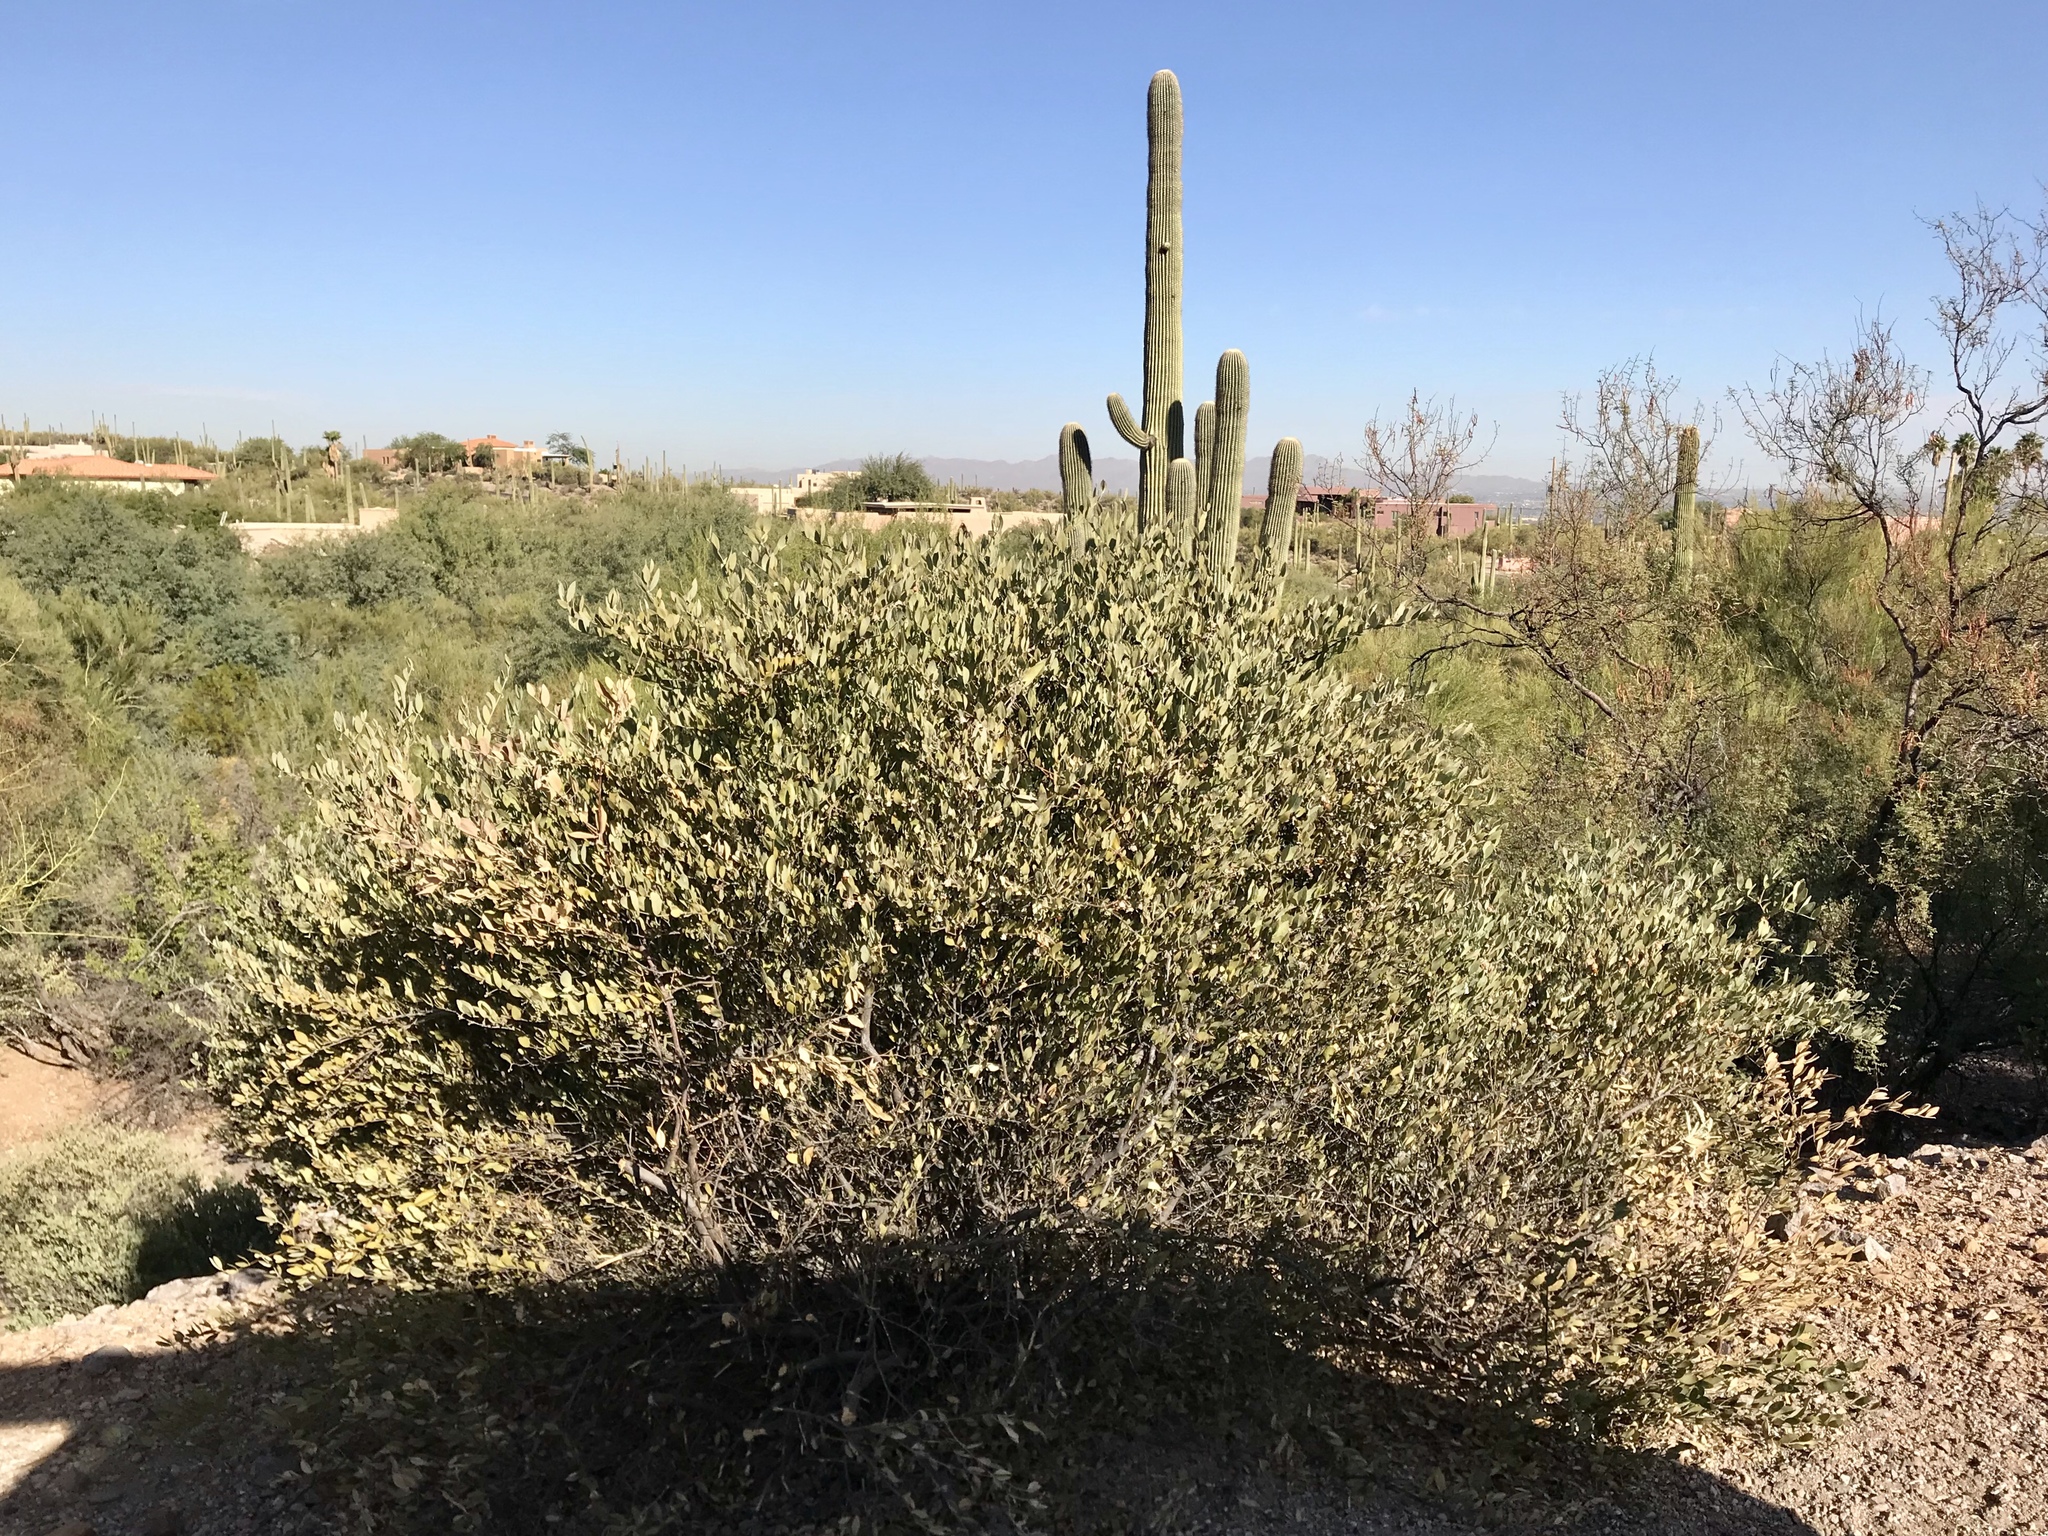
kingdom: Plantae
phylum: Tracheophyta
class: Magnoliopsida
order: Caryophyllales
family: Simmondsiaceae
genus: Simmondsia
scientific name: Simmondsia chinensis
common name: Jojoba
